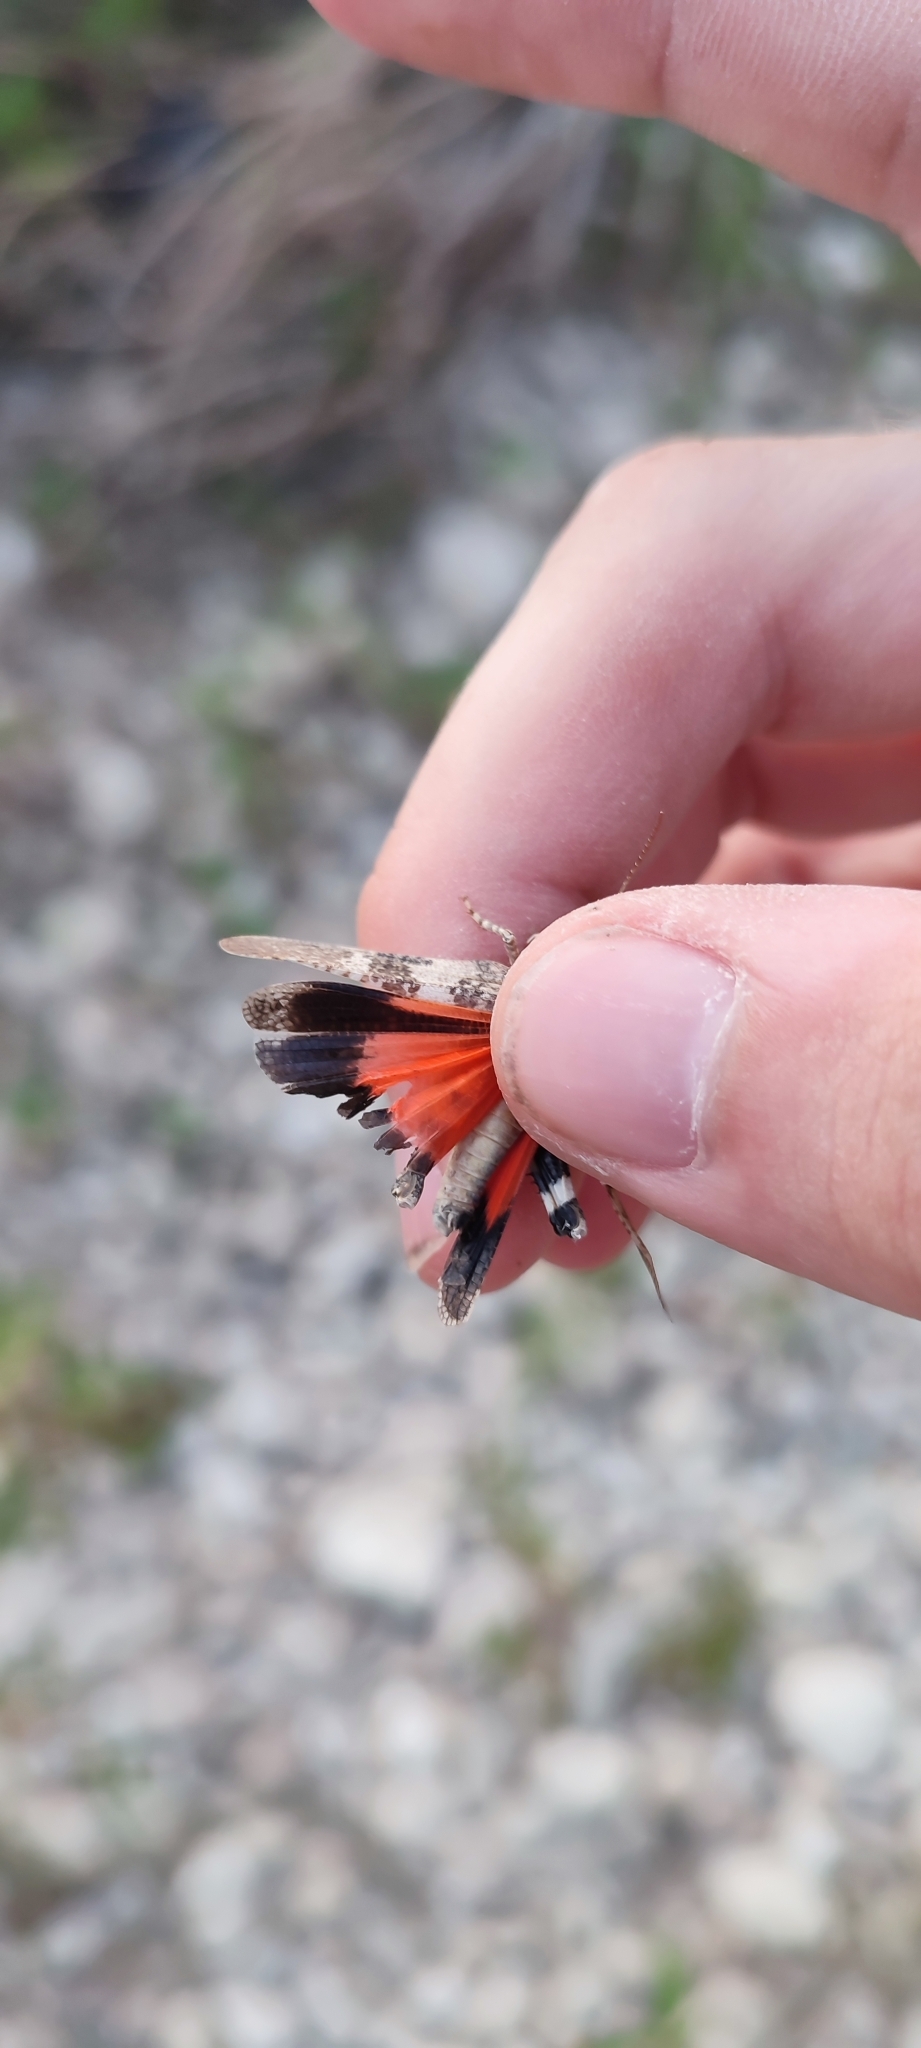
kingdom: Animalia
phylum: Arthropoda
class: Insecta
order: Orthoptera
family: Acrididae
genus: Oedipoda
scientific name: Oedipoda germanica
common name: Red band-winged grasshopper
